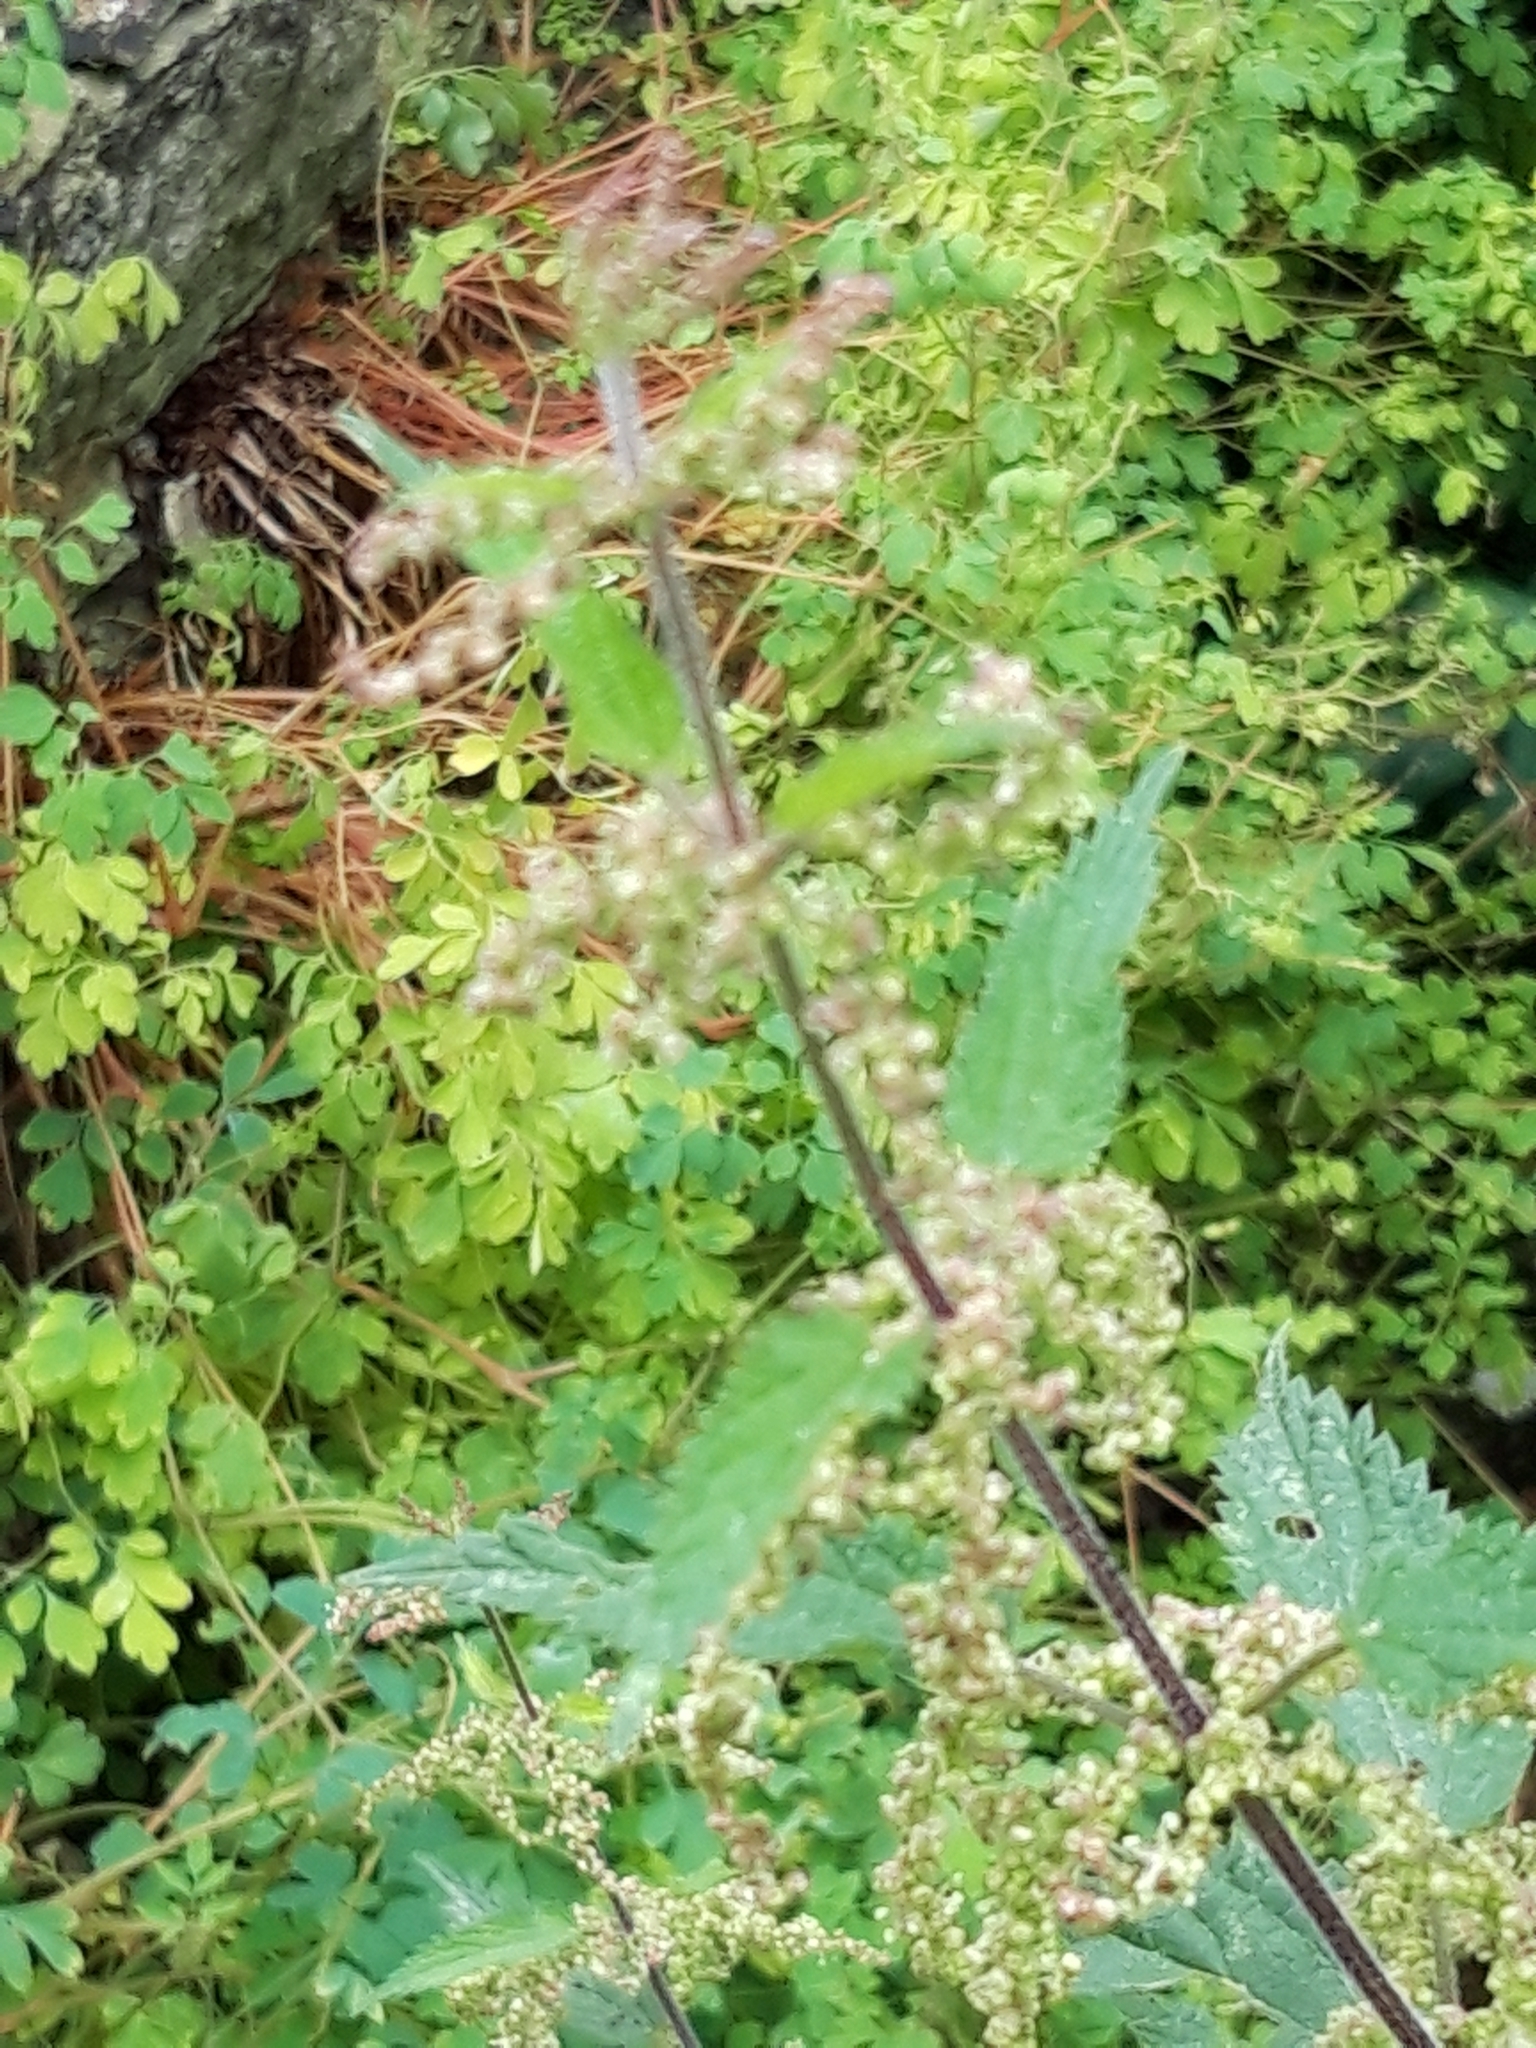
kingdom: Plantae
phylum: Tracheophyta
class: Magnoliopsida
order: Rosales
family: Urticaceae
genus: Urtica
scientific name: Urtica dioica
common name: Common nettle
